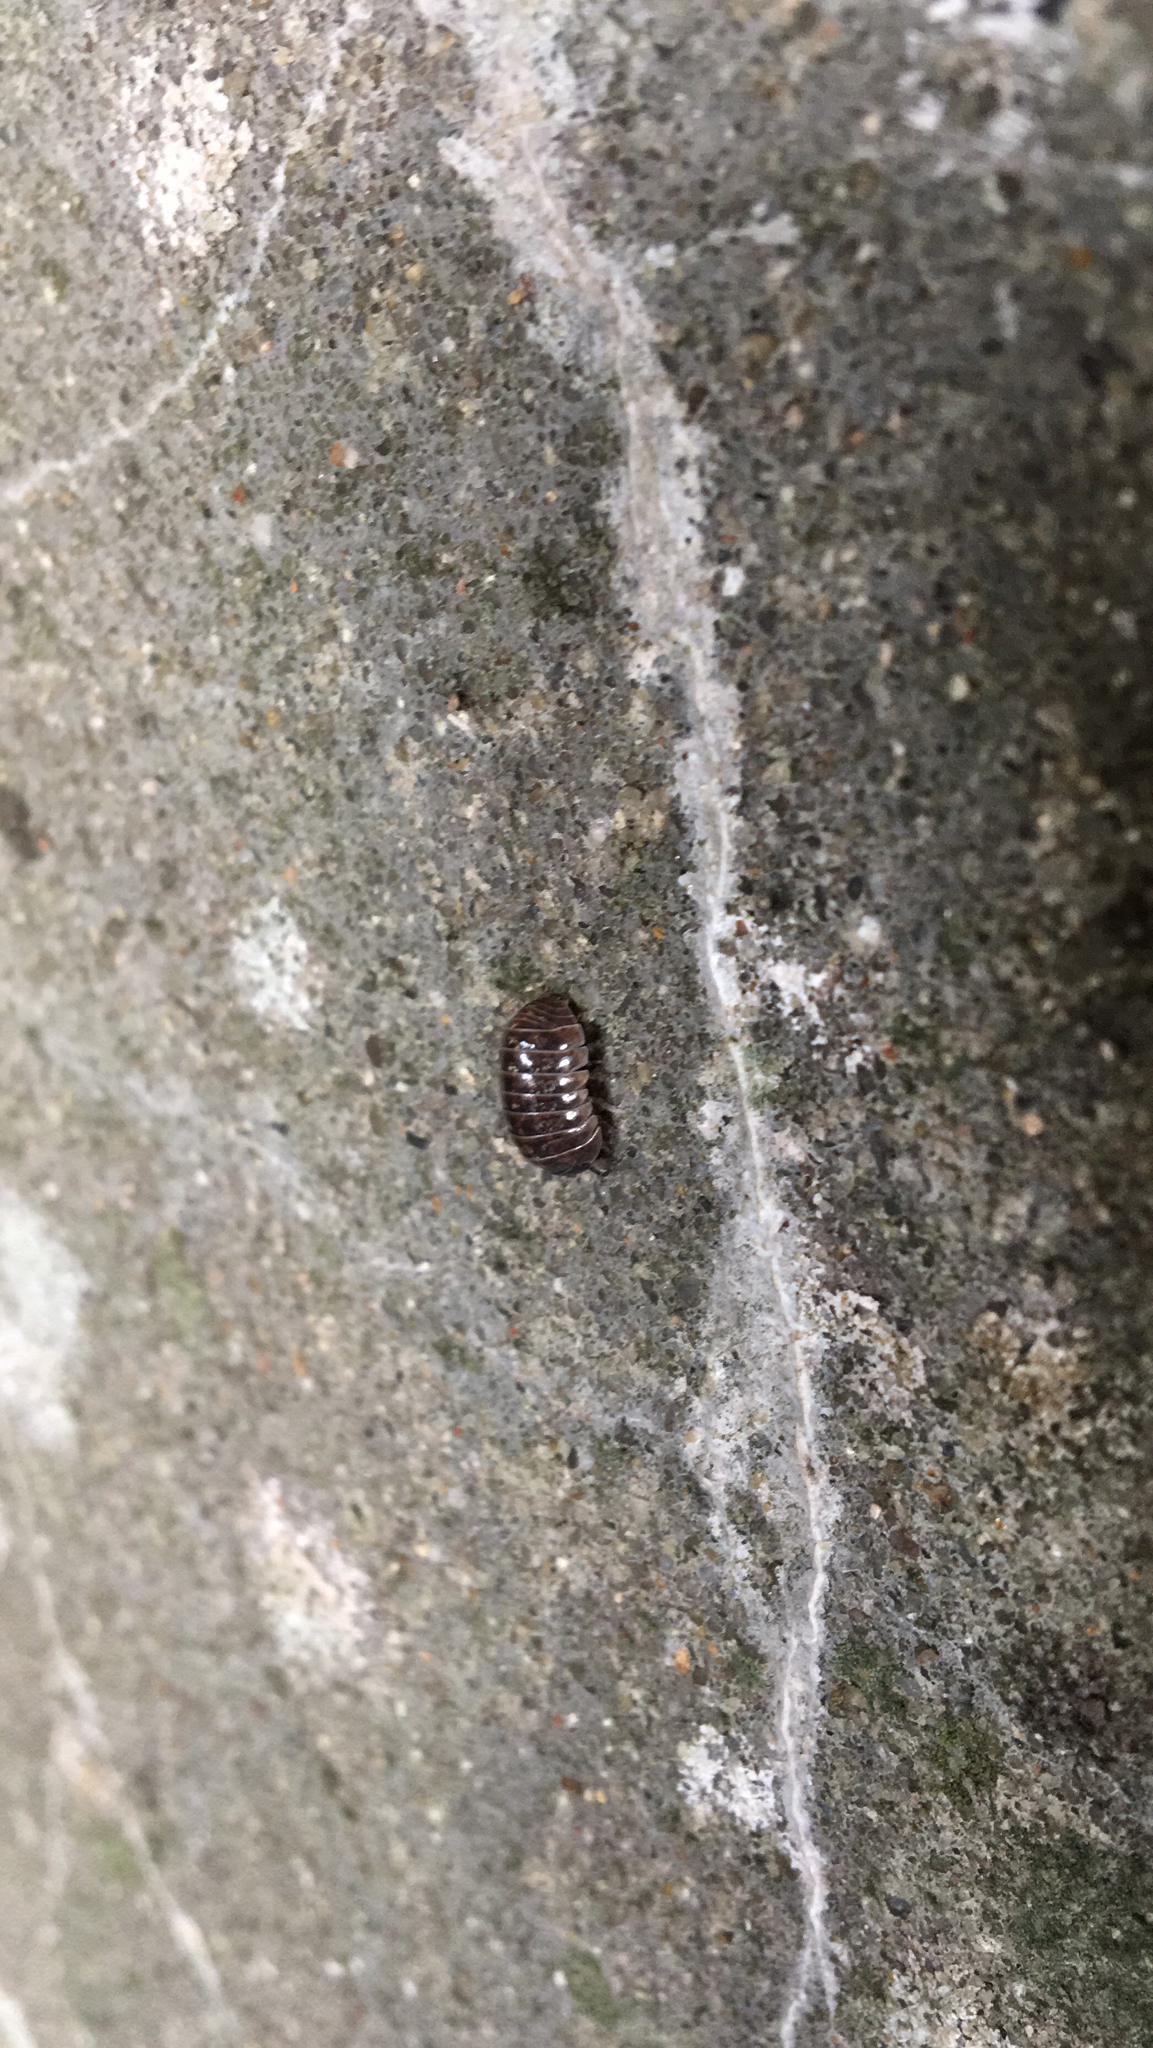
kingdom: Animalia
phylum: Arthropoda
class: Malacostraca
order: Isopoda
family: Armadillidiidae
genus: Armadillidium
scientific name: Armadillidium vulgare
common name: Common pill woodlouse
